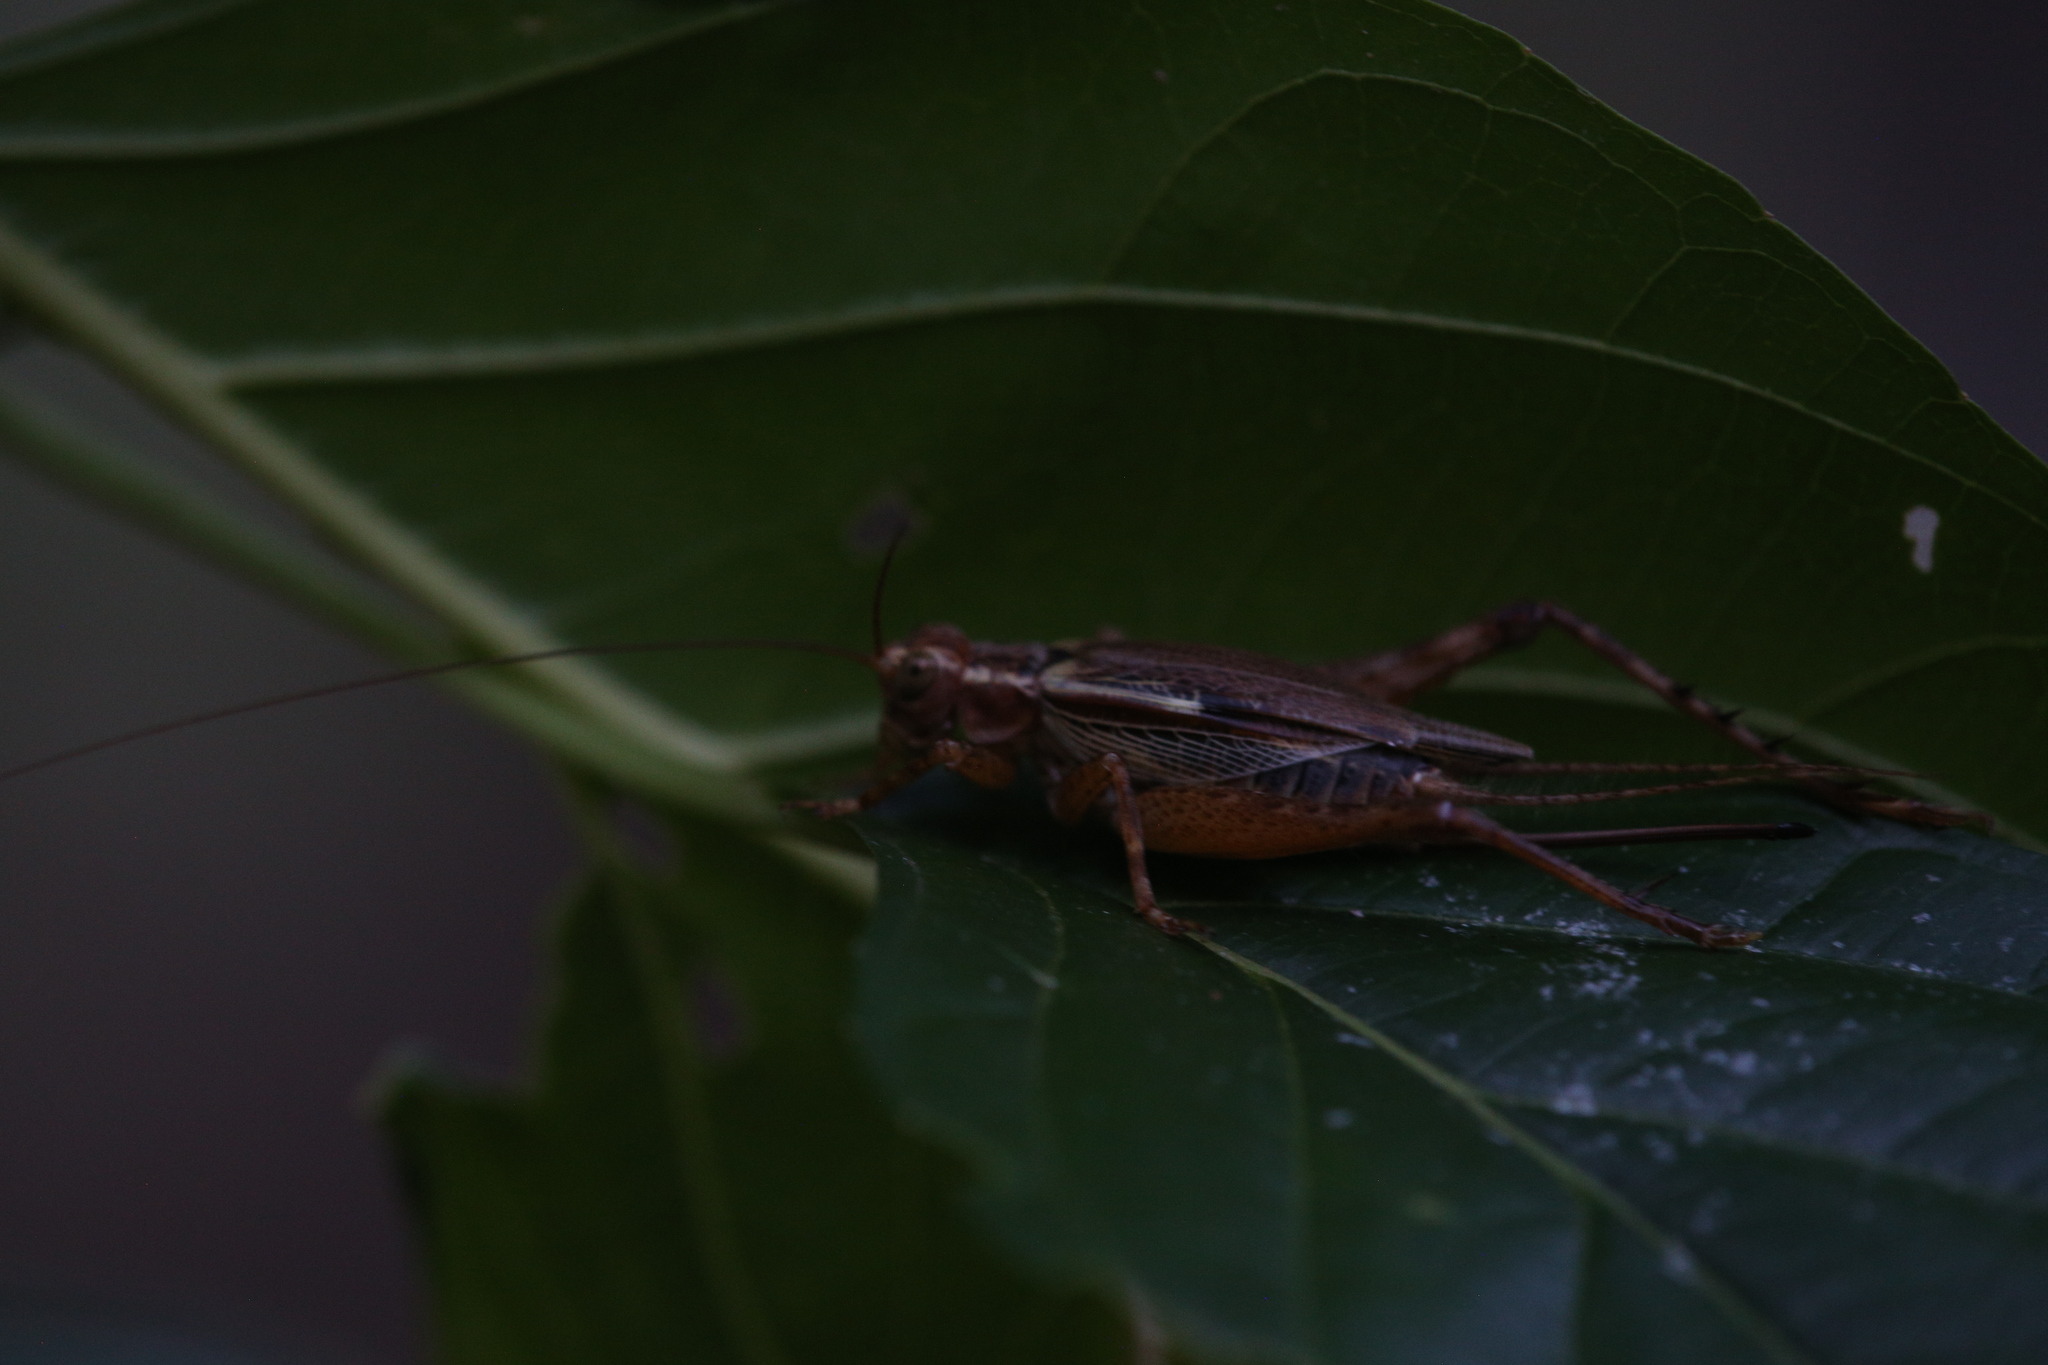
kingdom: Animalia
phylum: Arthropoda
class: Insecta
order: Orthoptera
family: Gryllidae
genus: Cardiodactylus
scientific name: Cardiodactylus novaeguineae
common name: Sad cricket
